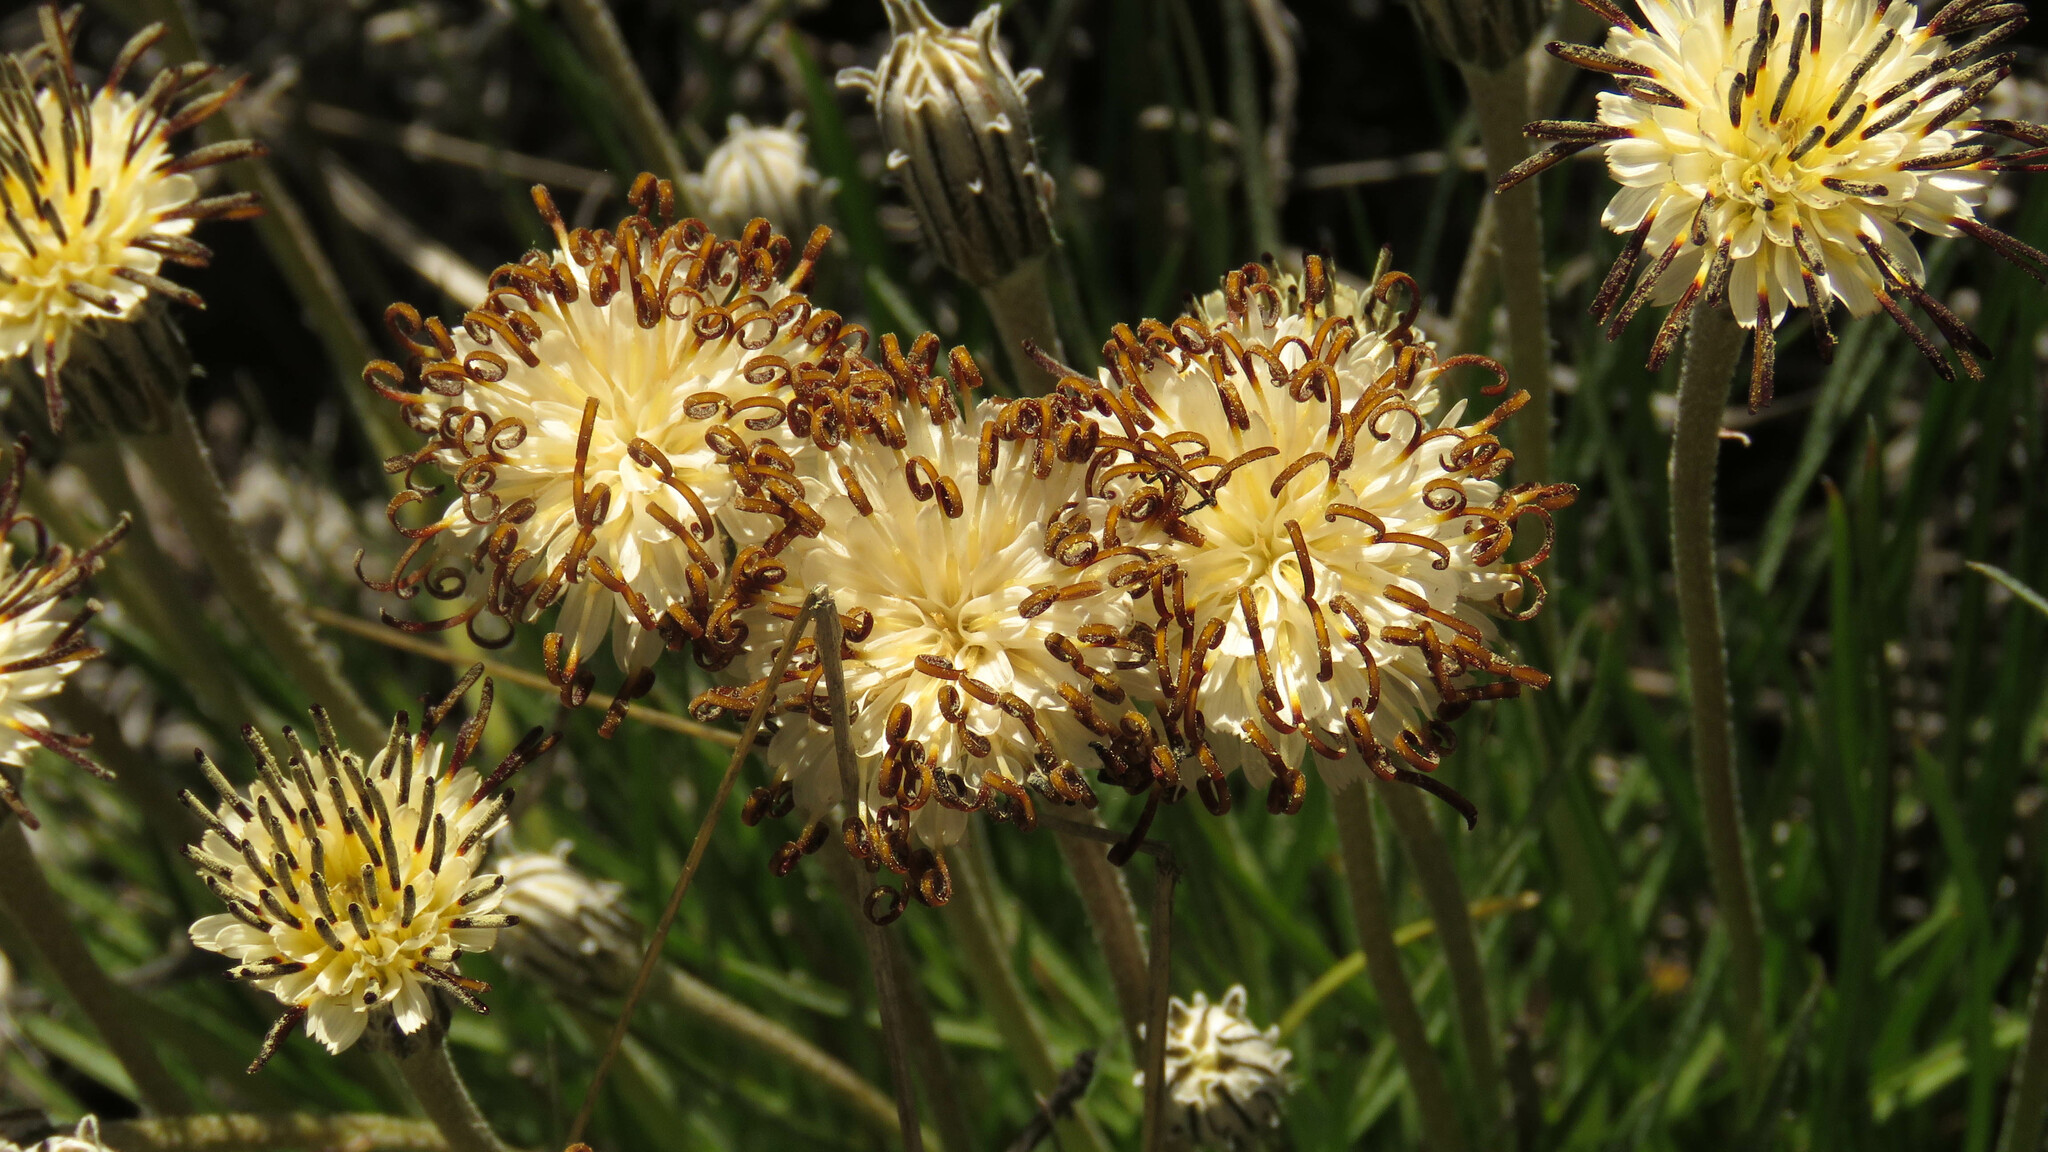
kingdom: Plantae
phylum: Tracheophyta
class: Magnoliopsida
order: Asterales
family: Asteraceae
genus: Hypochaeris
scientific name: Hypochaeris incana
